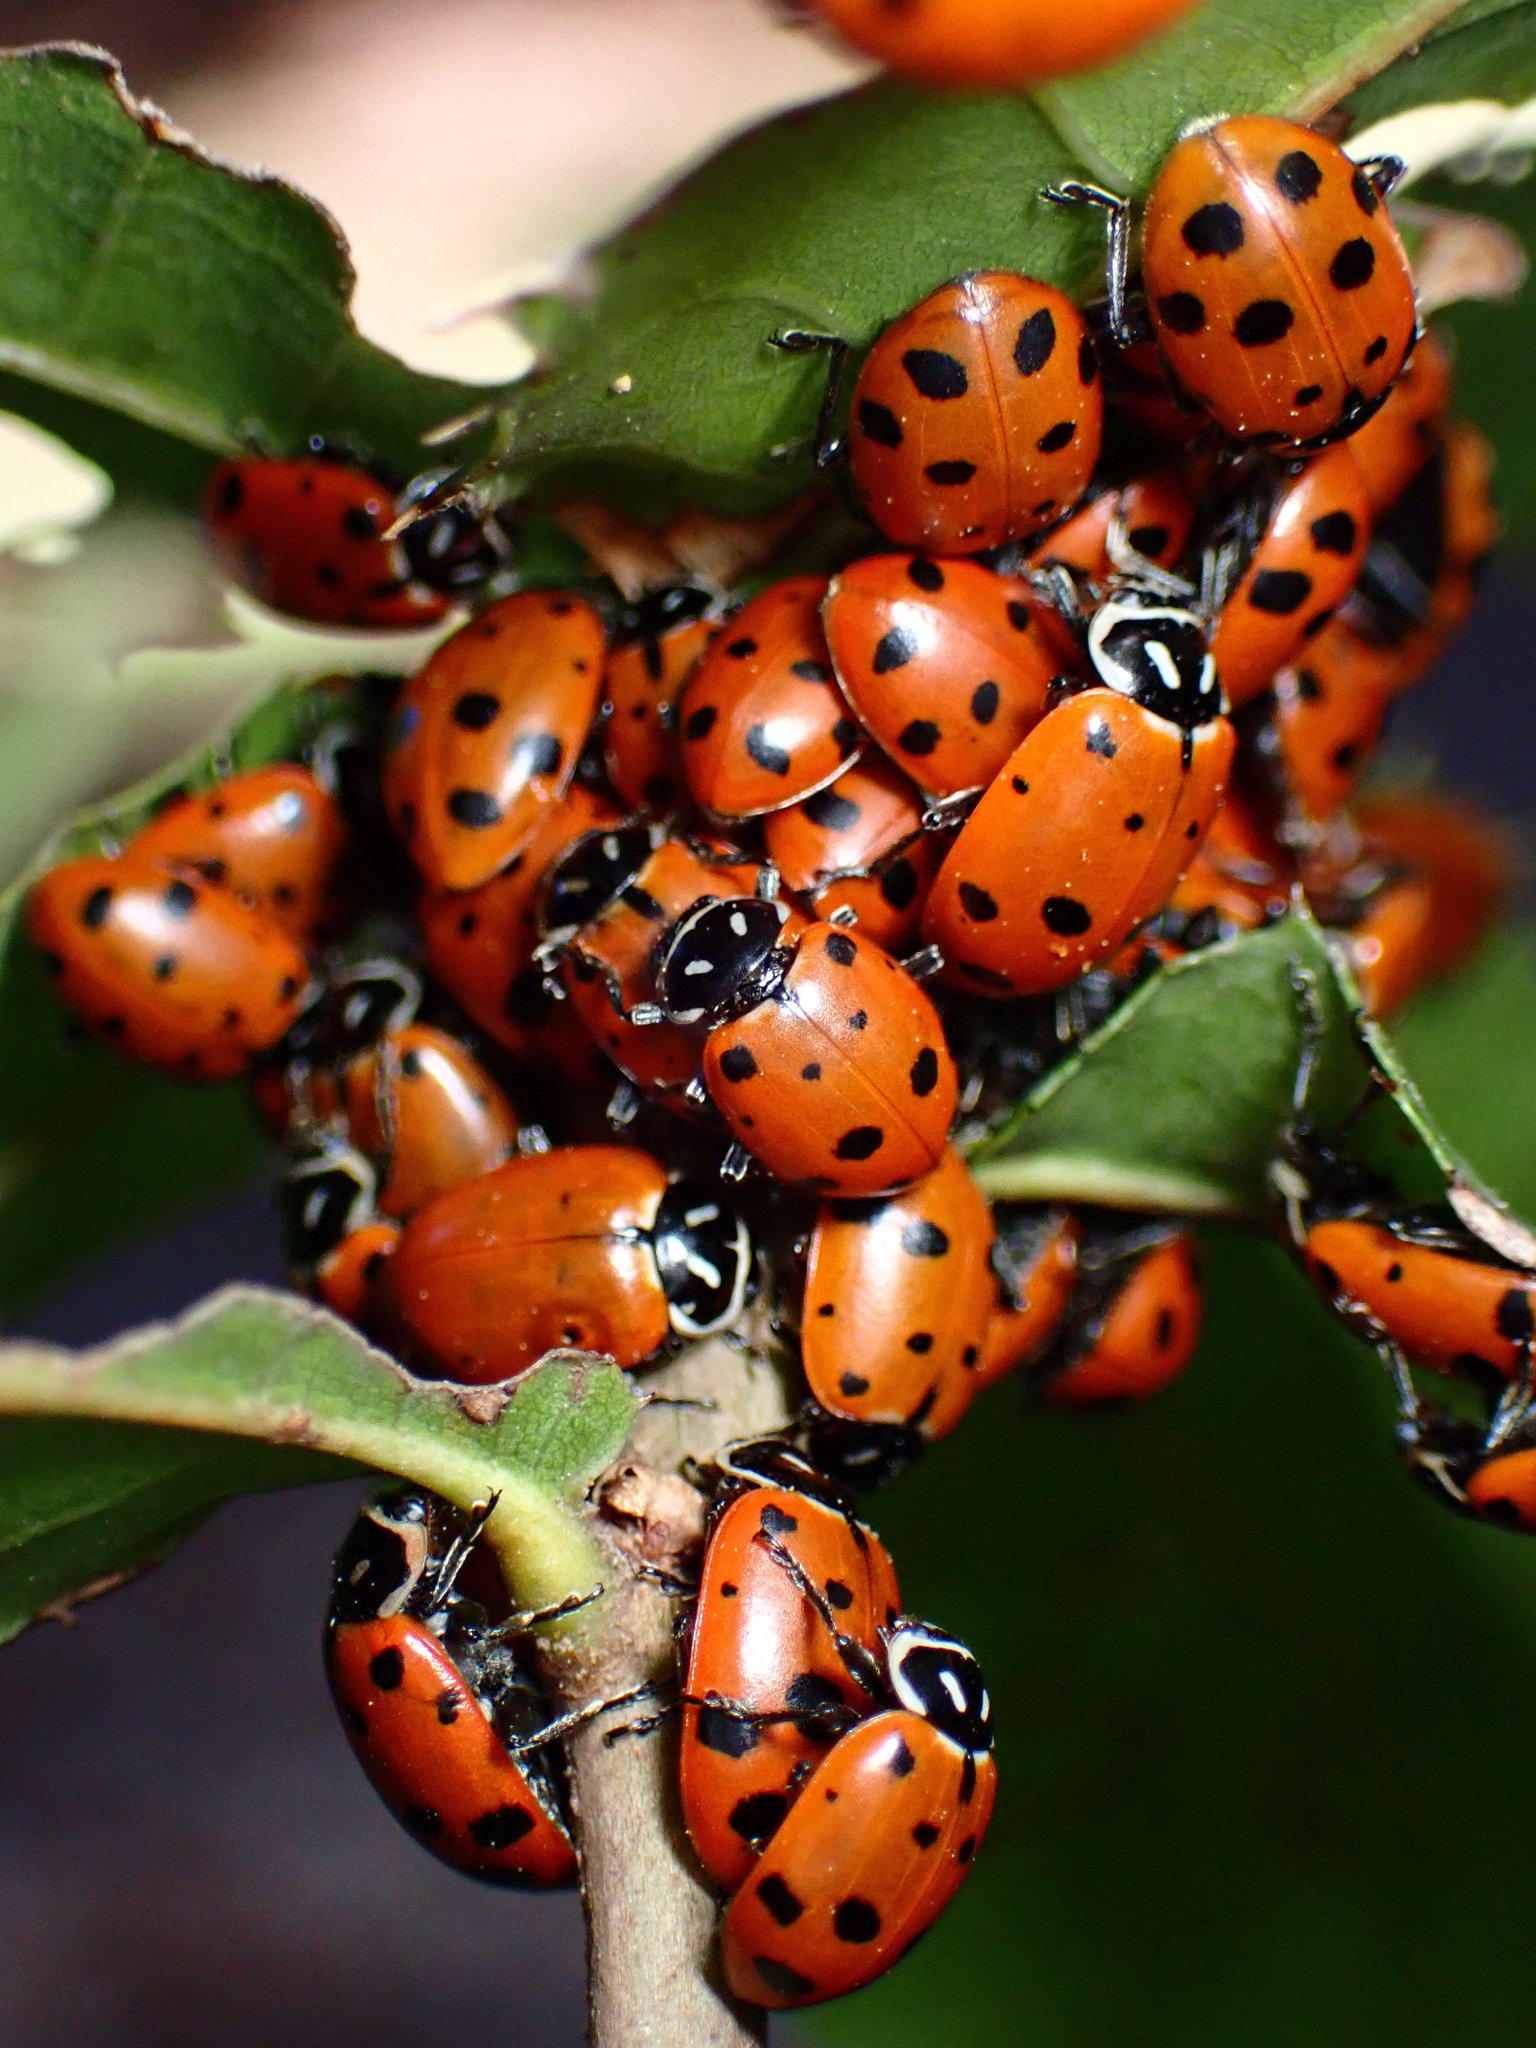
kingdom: Animalia
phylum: Arthropoda
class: Insecta
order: Coleoptera
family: Coccinellidae
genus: Hippodamia
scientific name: Hippodamia convergens
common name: Convergent lady beetle
